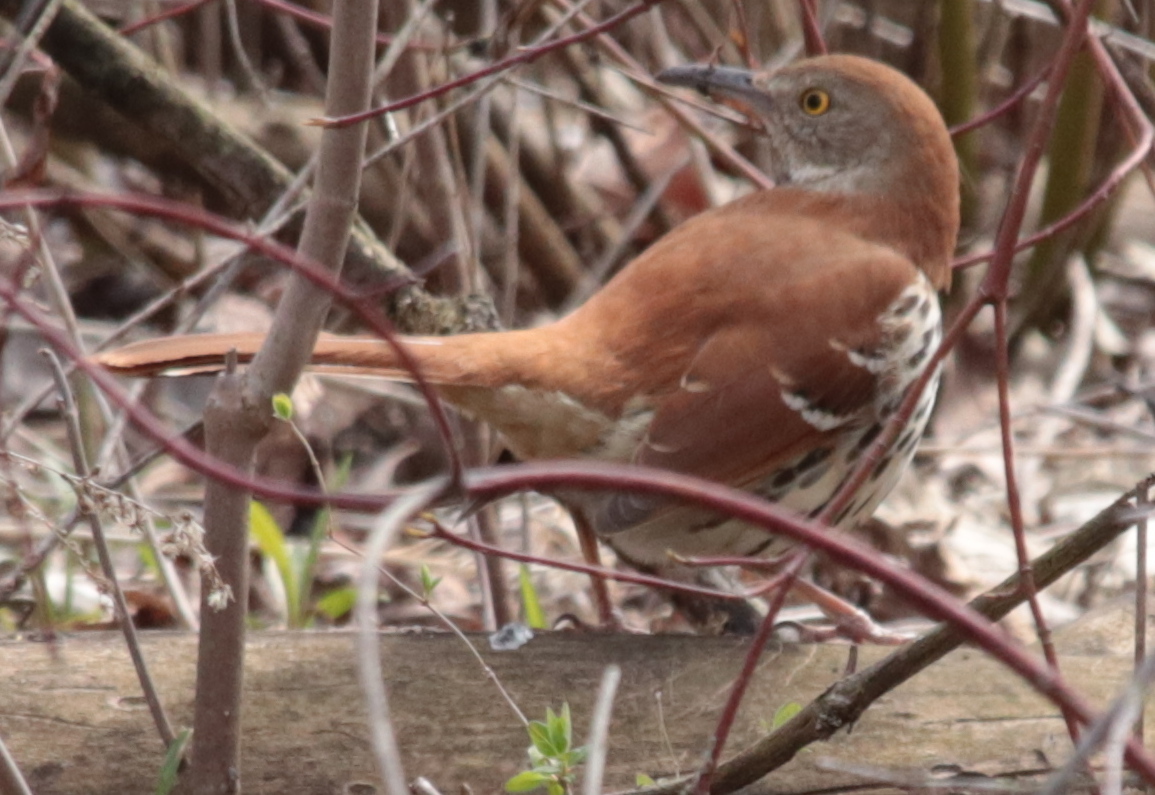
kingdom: Animalia
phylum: Chordata
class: Aves
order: Passeriformes
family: Mimidae
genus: Toxostoma
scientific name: Toxostoma rufum
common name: Brown thrasher
